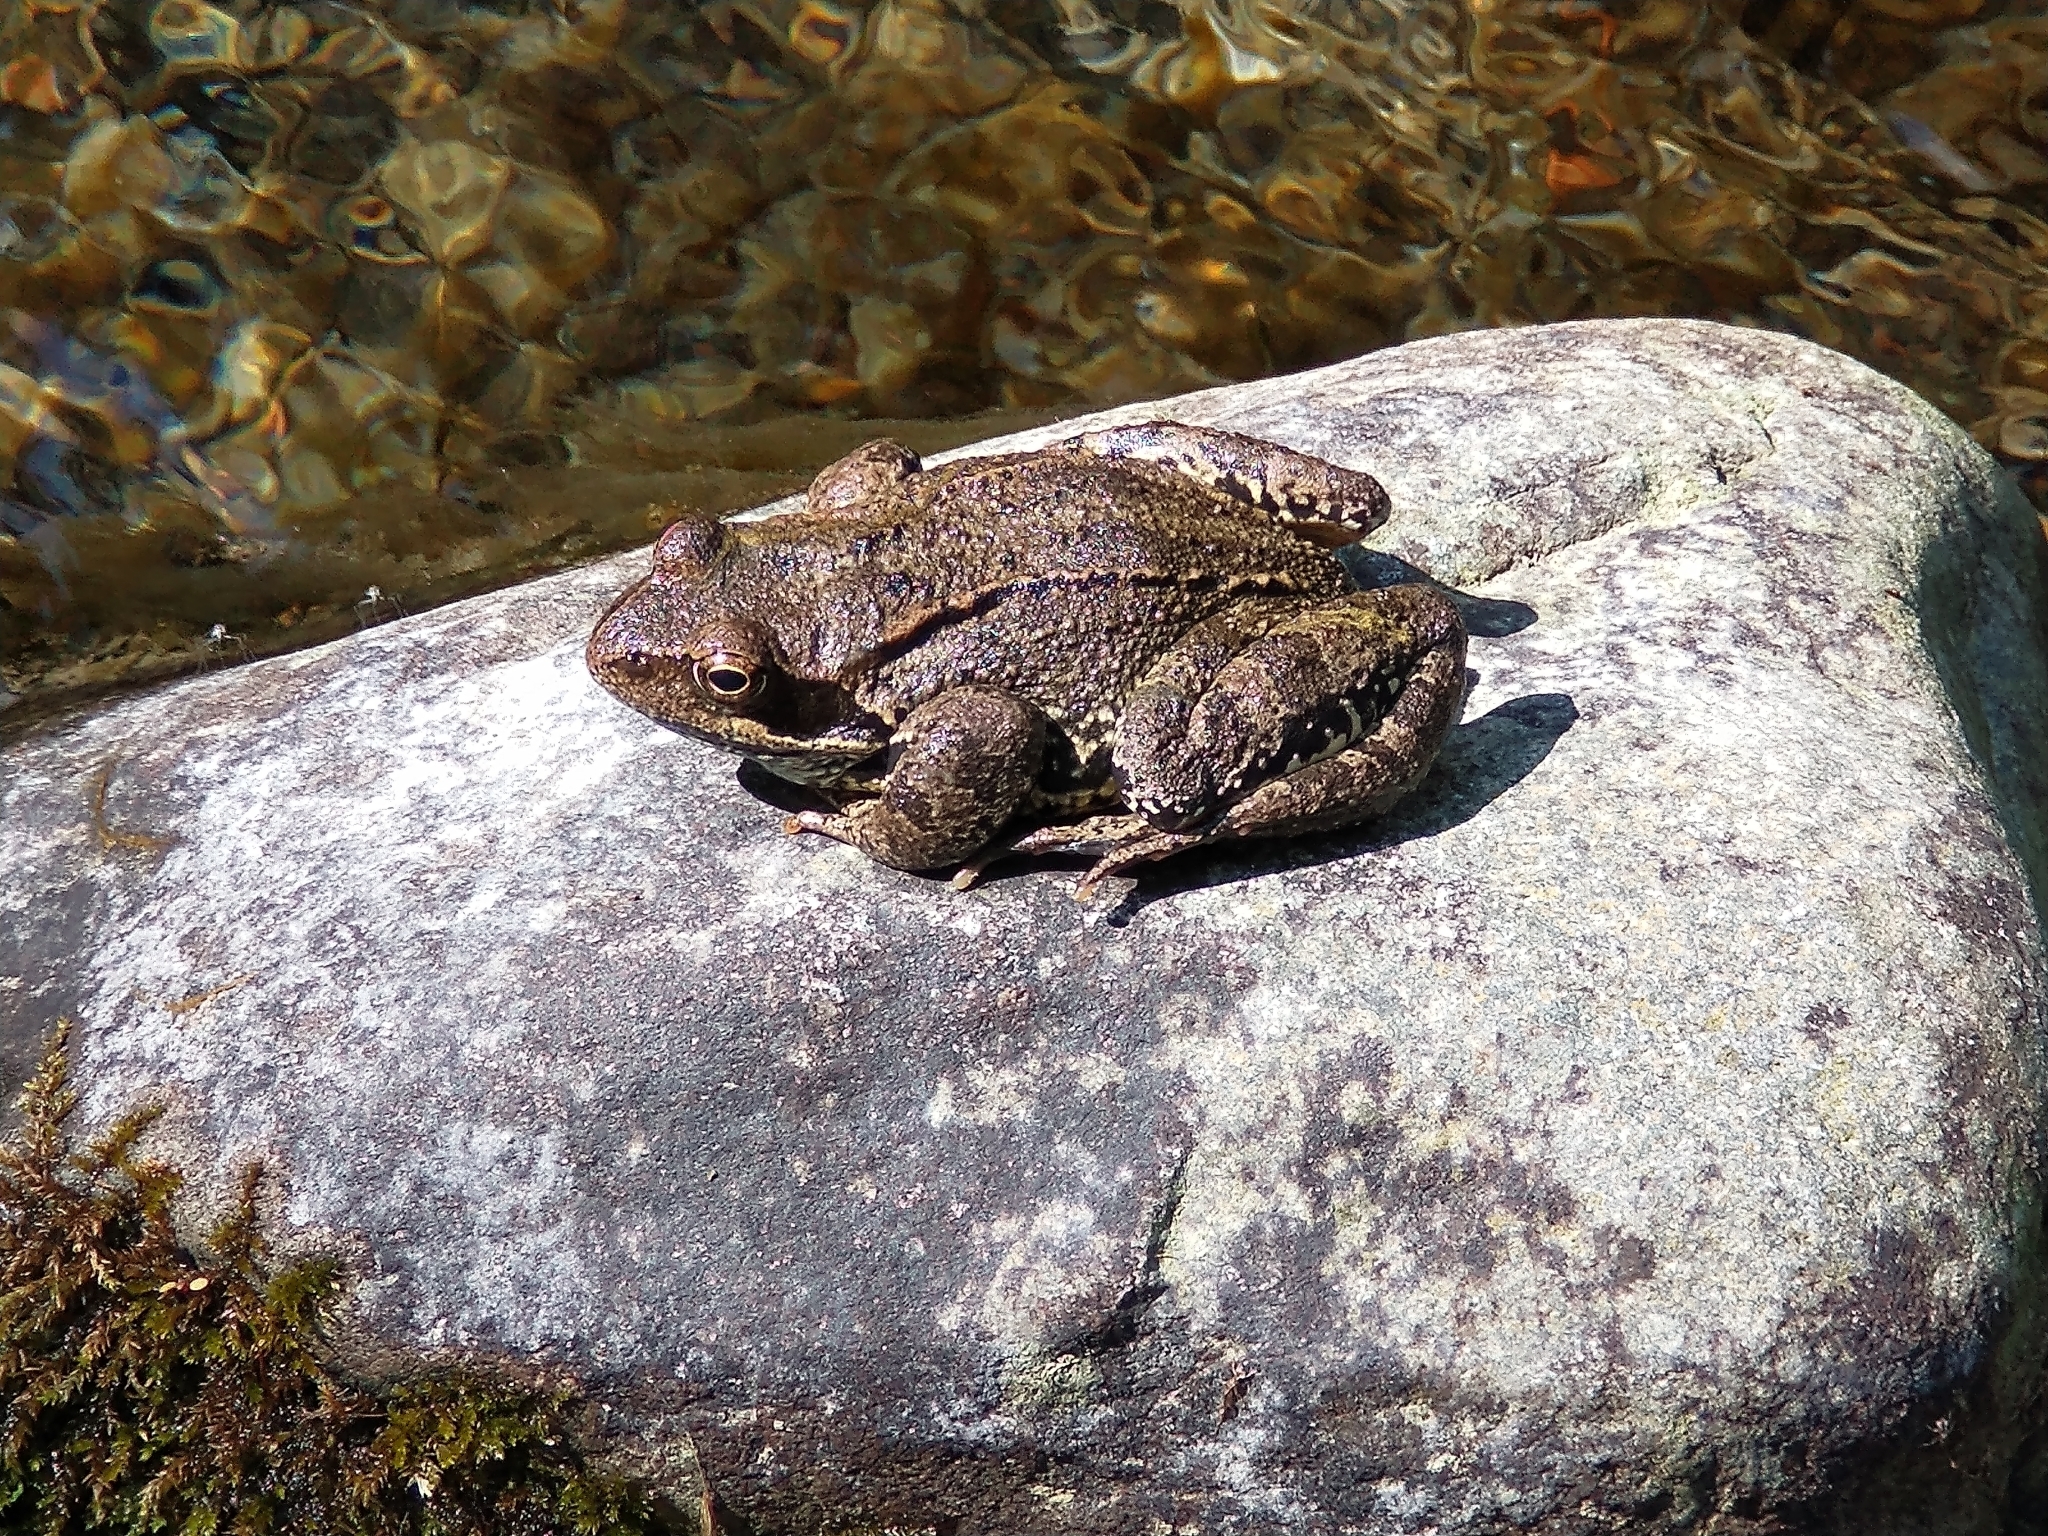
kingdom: Animalia
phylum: Chordata
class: Amphibia
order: Anura
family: Ranidae
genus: Rana
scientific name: Rana temporaria
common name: Common frog
